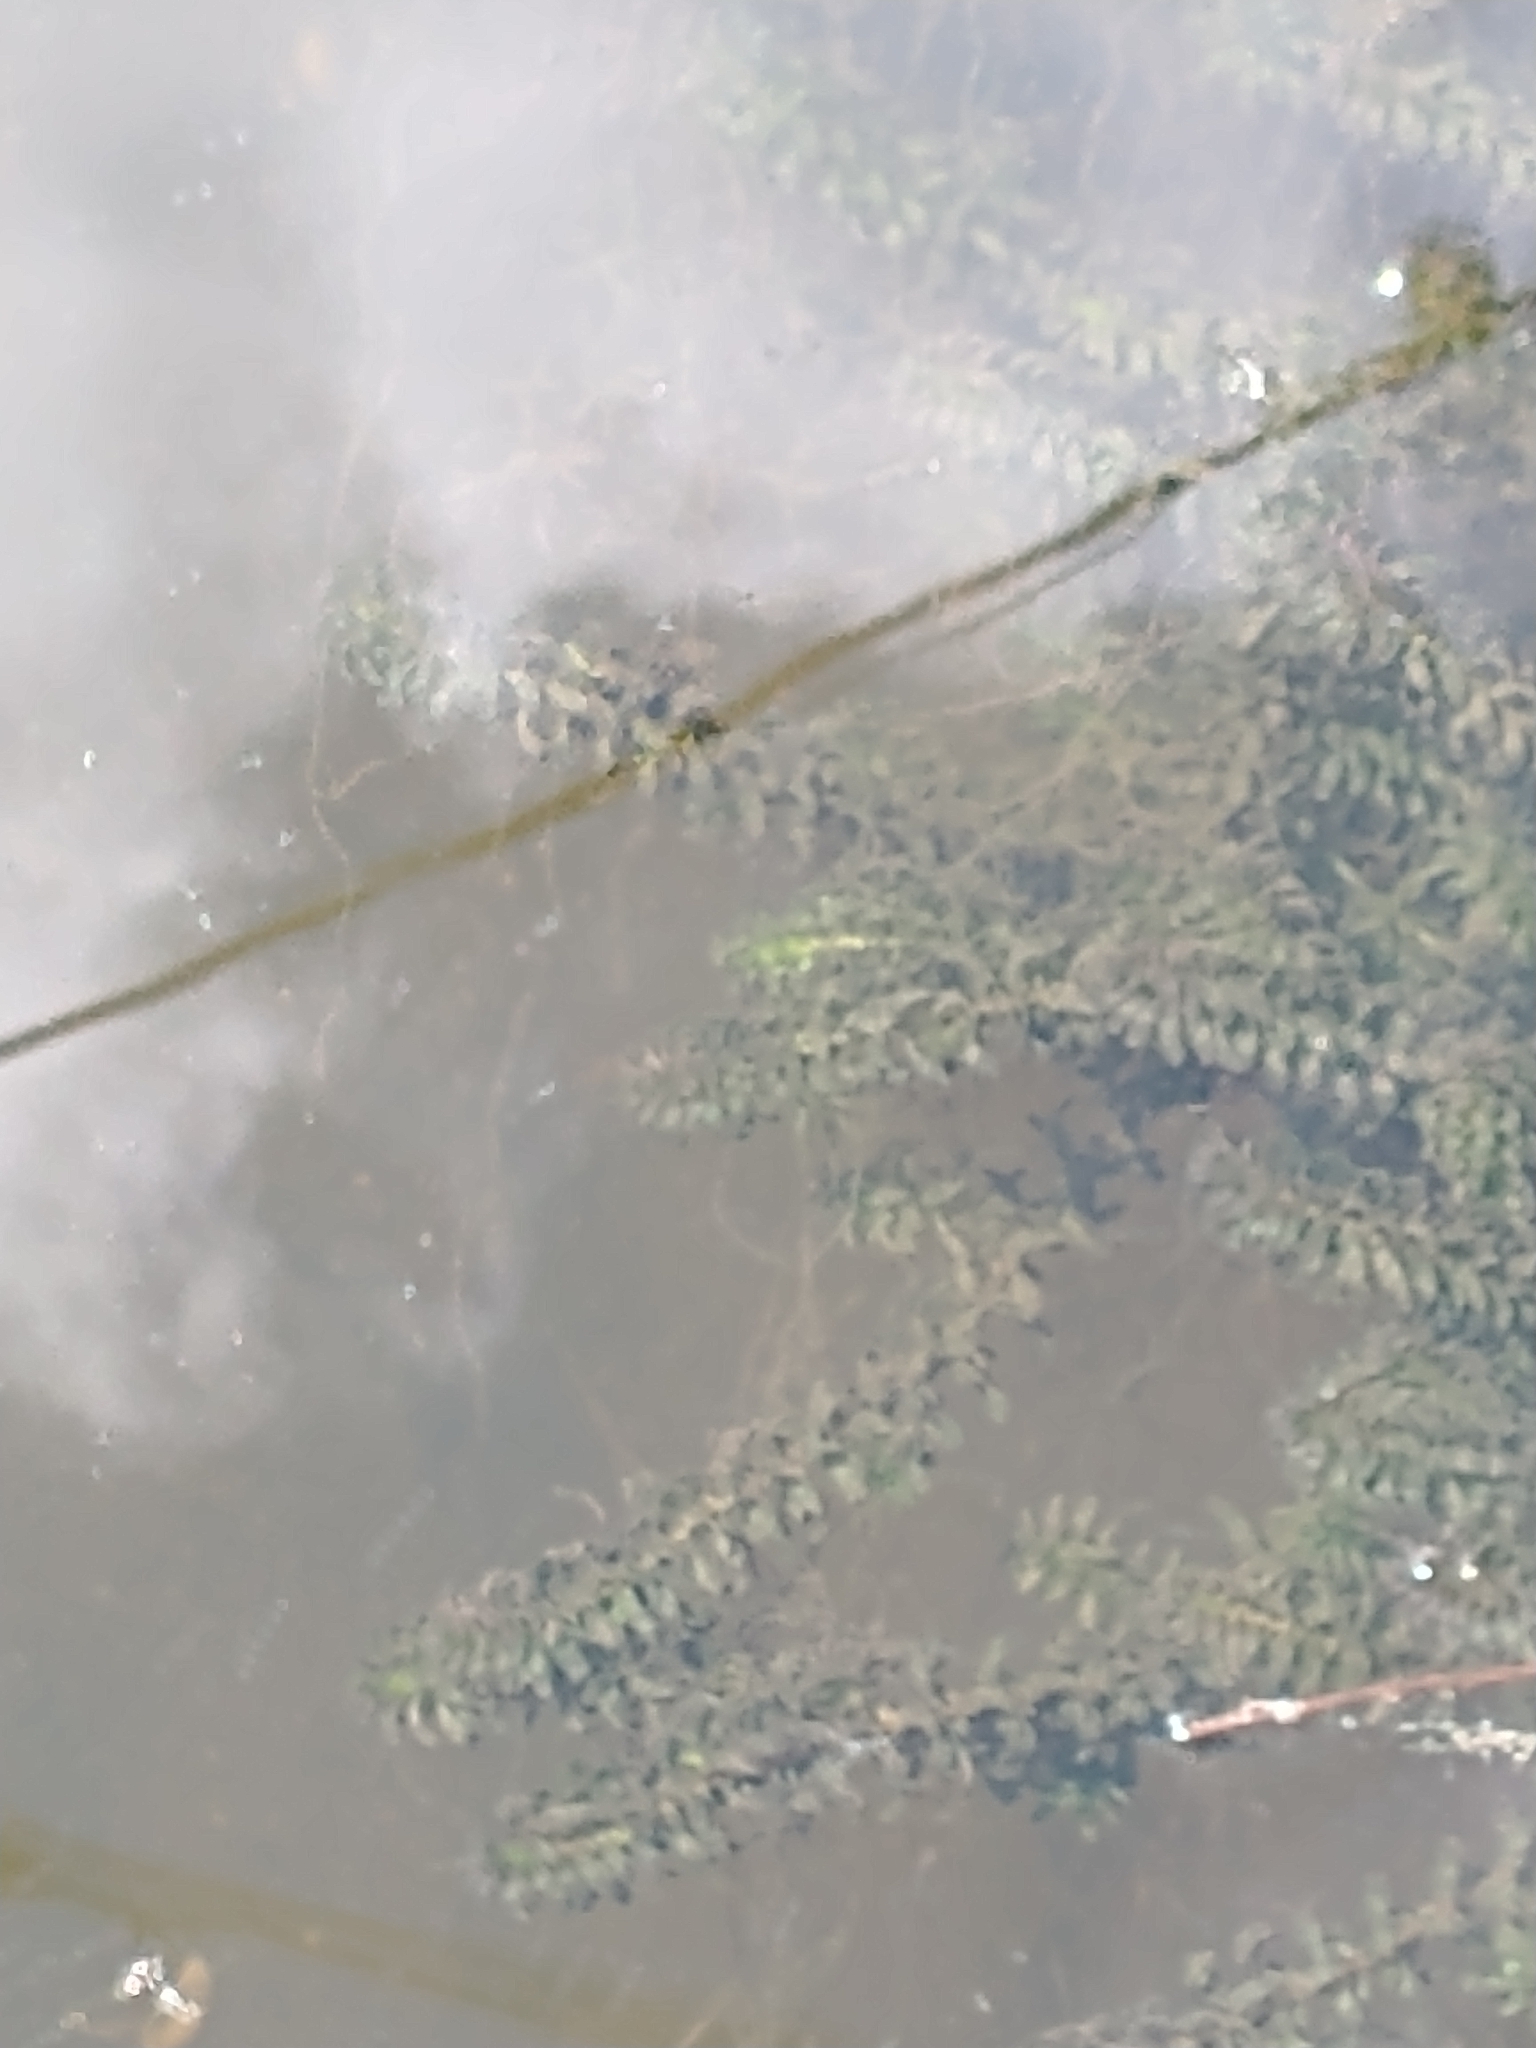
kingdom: Plantae
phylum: Tracheophyta
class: Liliopsida
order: Alismatales
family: Hydrocharitaceae
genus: Elodea
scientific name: Elodea canadensis
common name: Canadian waterweed
